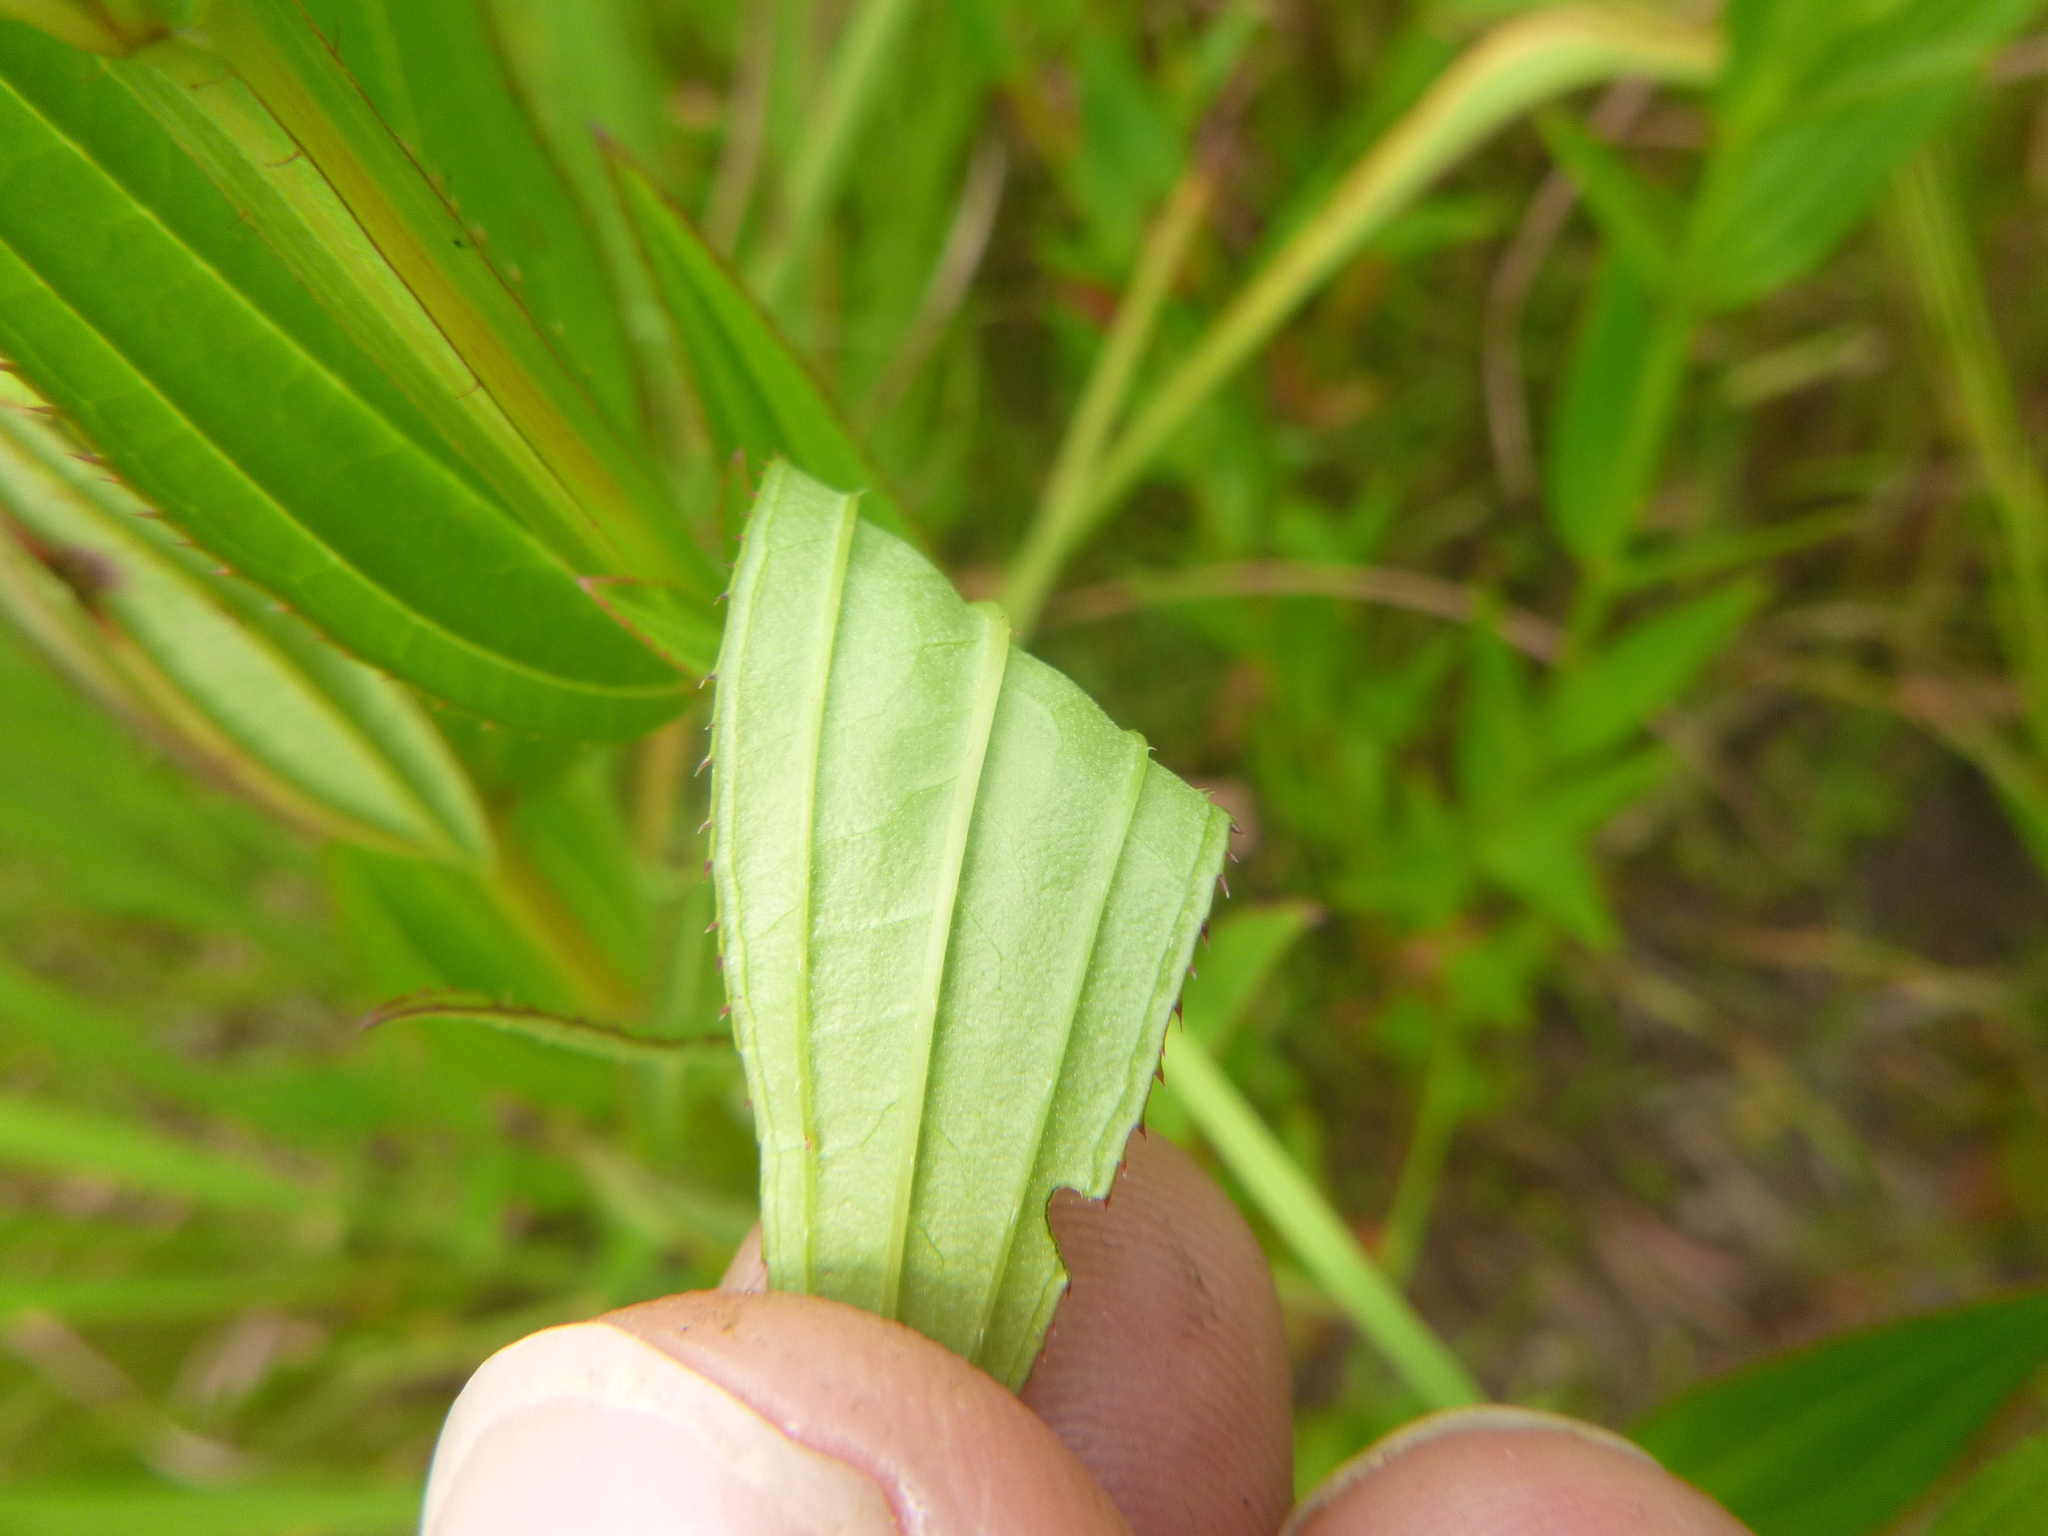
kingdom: Plantae
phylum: Tracheophyta
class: Magnoliopsida
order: Myrtales
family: Melastomataceae
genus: Rhexia
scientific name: Rhexia virginica
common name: Common meadow beauty
